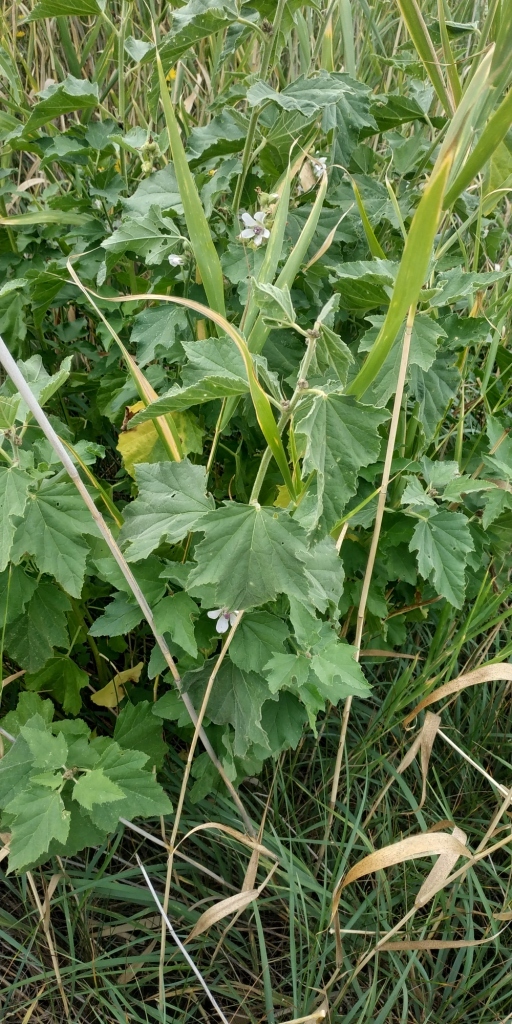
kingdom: Plantae
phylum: Tracheophyta
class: Magnoliopsida
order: Malvales
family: Malvaceae
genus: Althaea
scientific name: Althaea officinalis
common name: Marsh-mallow
